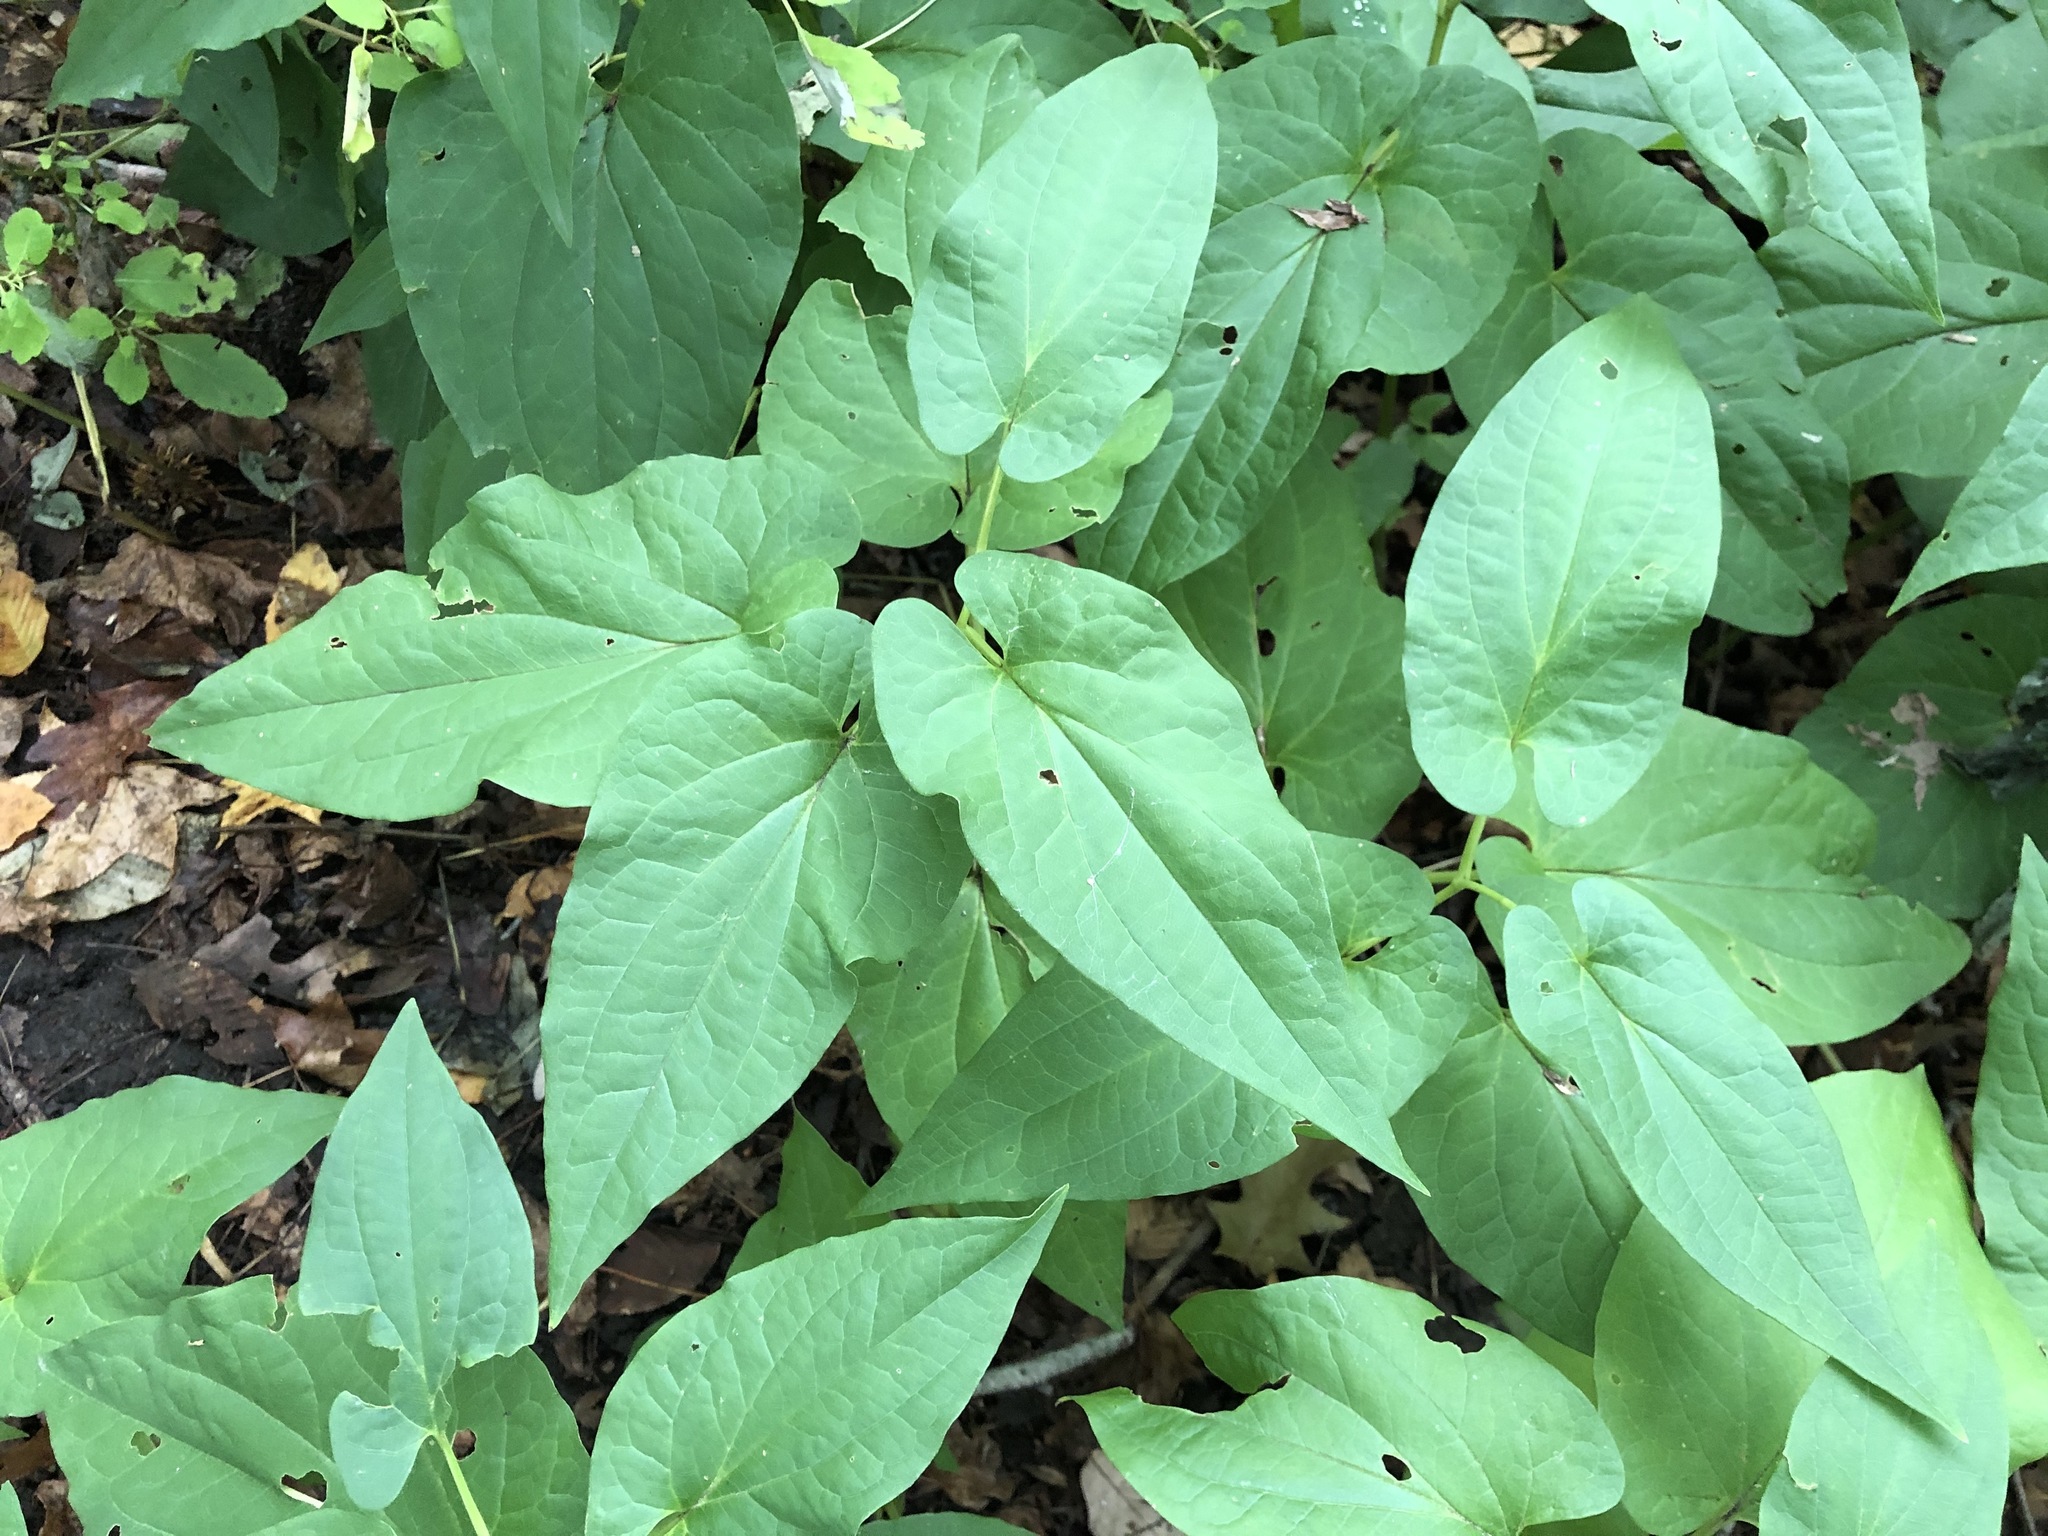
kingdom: Plantae
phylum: Tracheophyta
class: Magnoliopsida
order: Piperales
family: Saururaceae
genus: Saururus
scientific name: Saururus cernuus
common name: Lizard's-tail
